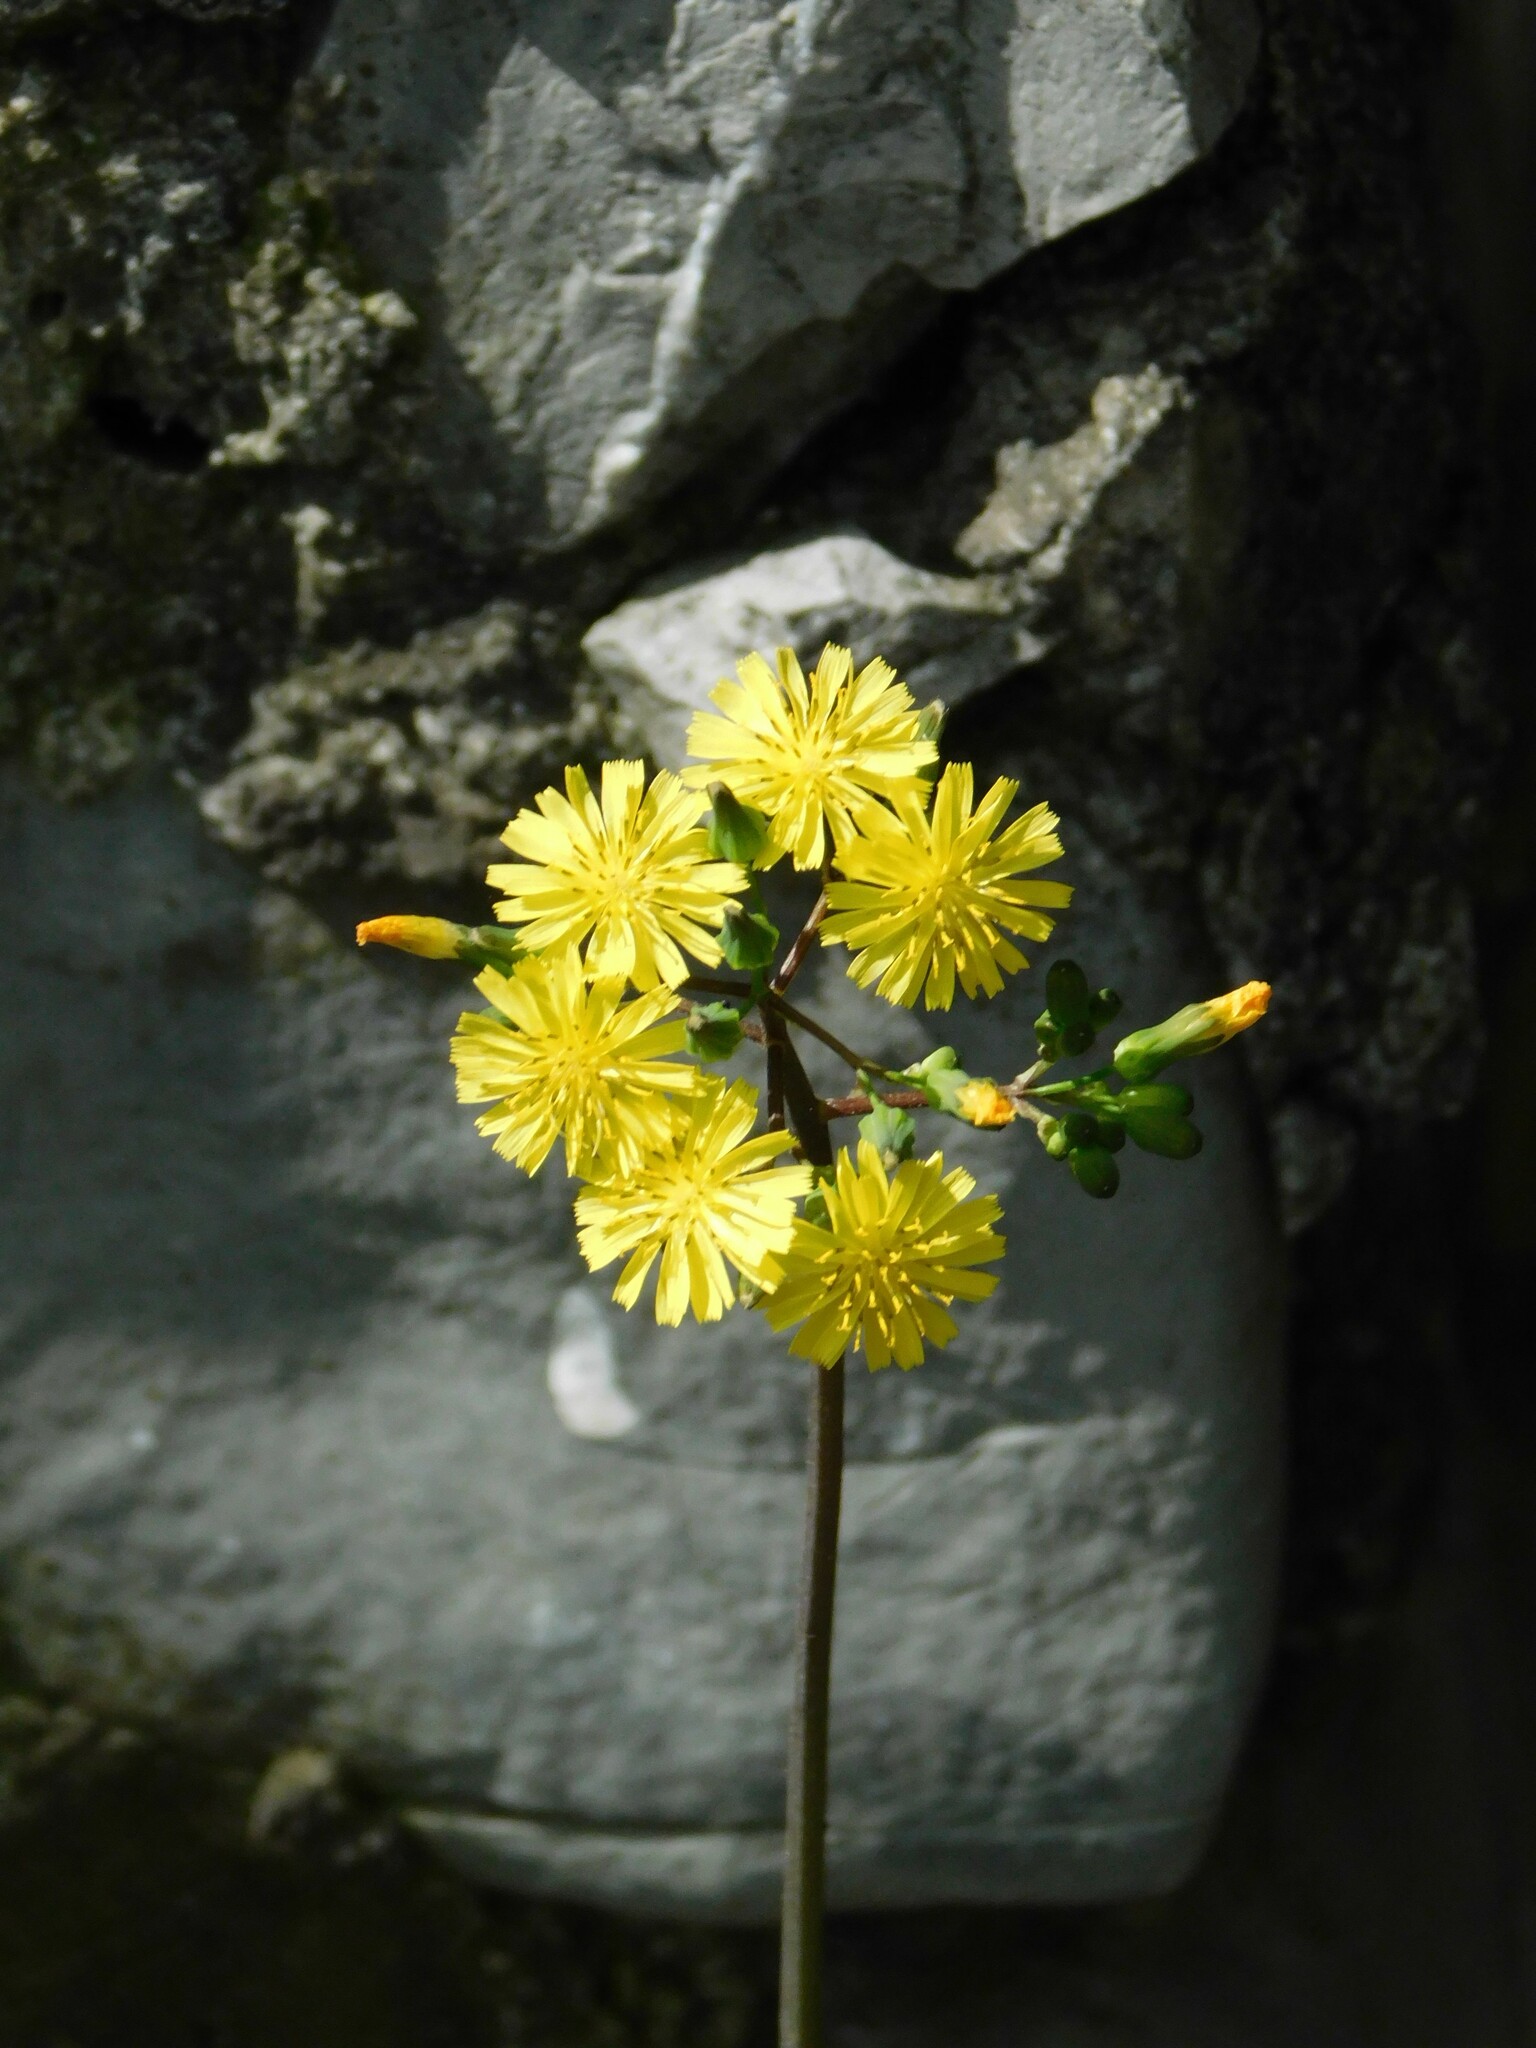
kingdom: Plantae
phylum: Tracheophyta
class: Magnoliopsida
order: Asterales
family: Asteraceae
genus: Youngia
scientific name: Youngia japonica
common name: Oriental false hawksbeard
